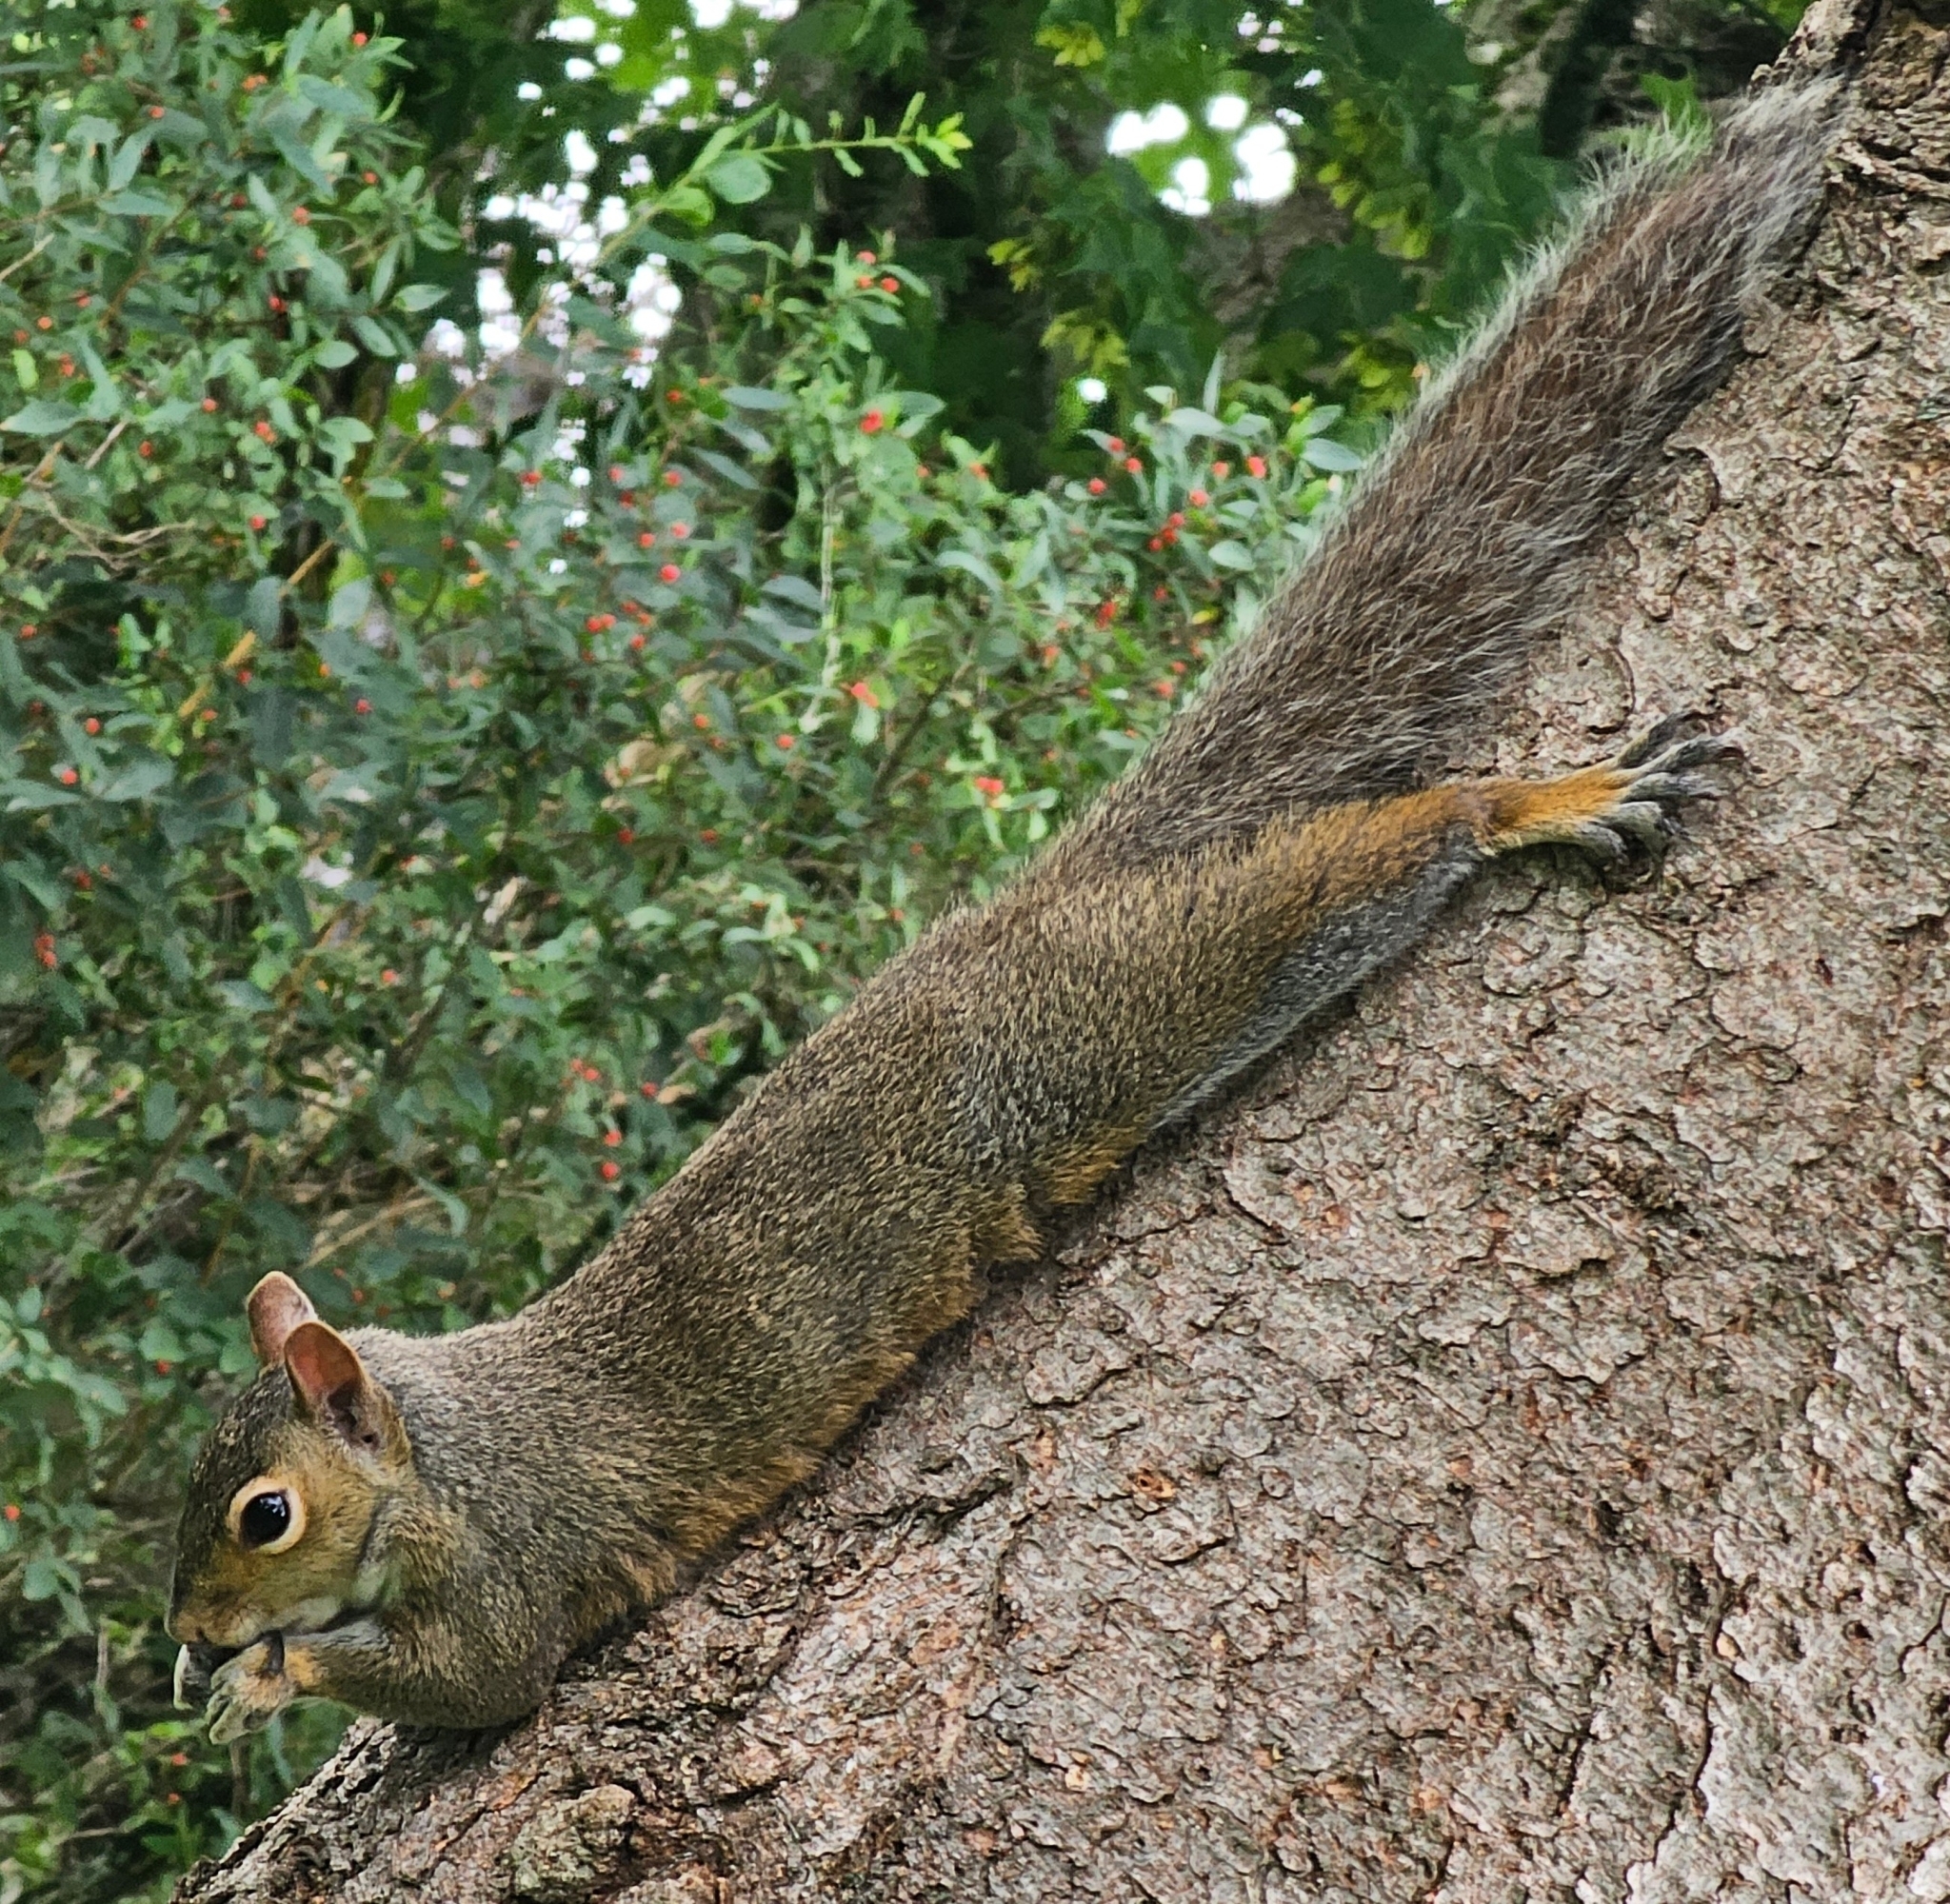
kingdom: Animalia
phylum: Chordata
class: Mammalia
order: Rodentia
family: Sciuridae
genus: Sciurus
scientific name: Sciurus carolinensis
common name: Eastern gray squirrel
